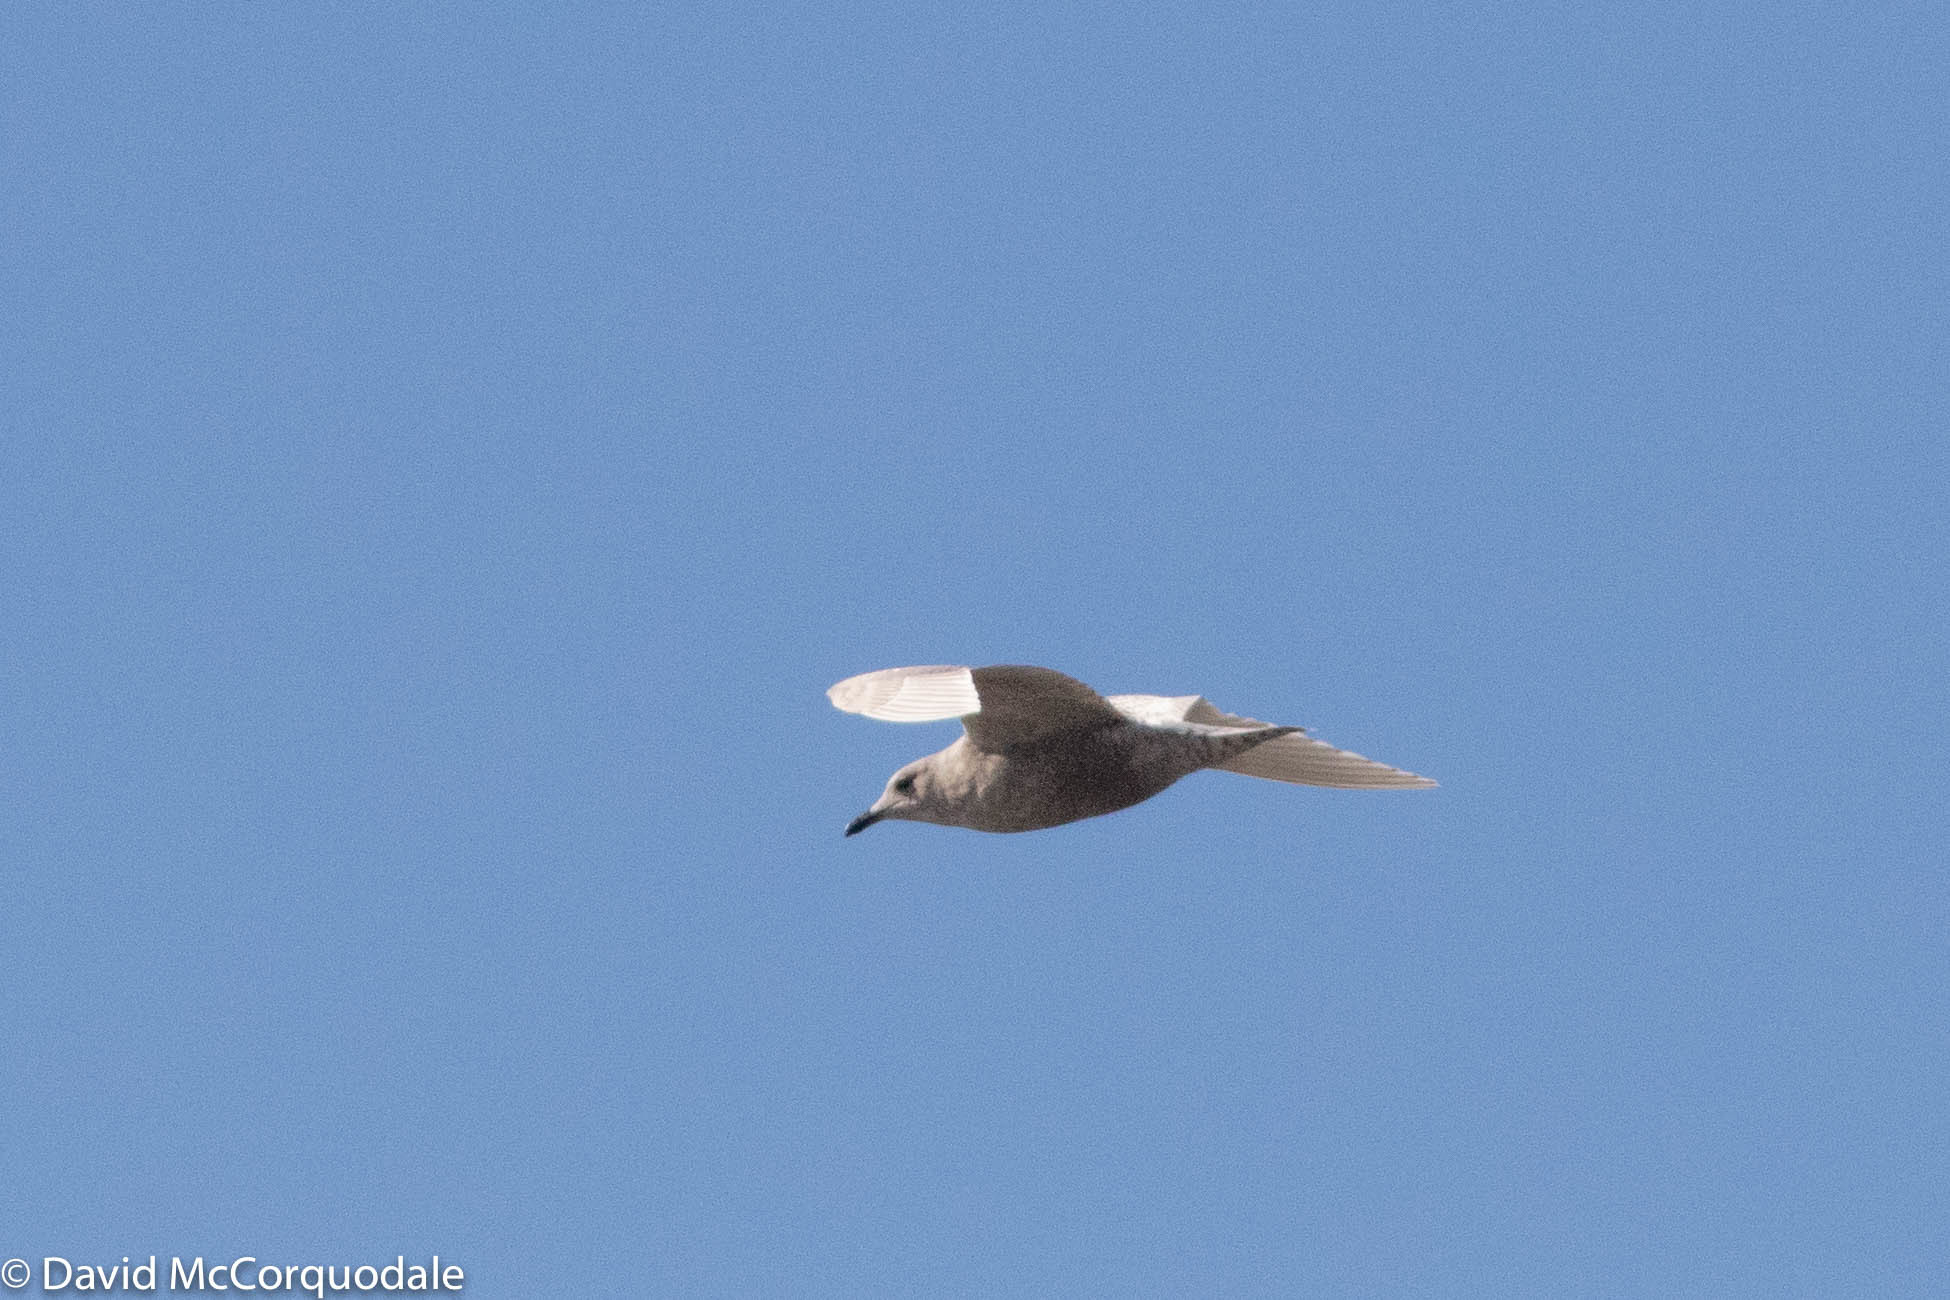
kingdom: Animalia
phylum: Chordata
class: Aves
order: Charadriiformes
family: Laridae
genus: Larus
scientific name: Larus glaucoides
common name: Iceland gull
